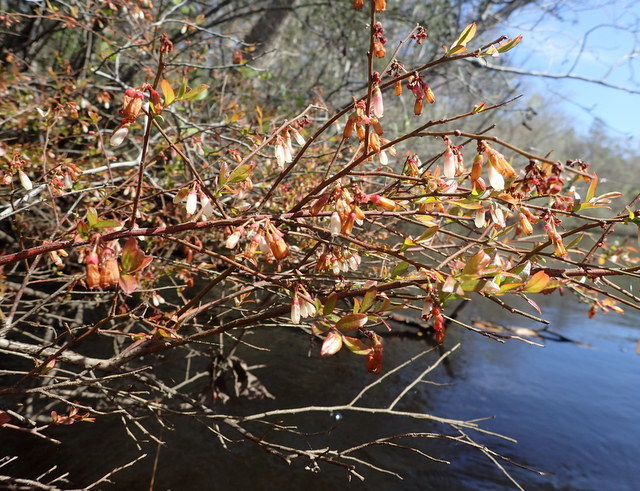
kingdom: Plantae
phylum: Tracheophyta
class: Magnoliopsida
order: Ericales
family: Ericaceae
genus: Vaccinium
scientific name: Vaccinium corymbosum
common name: Blueberry
